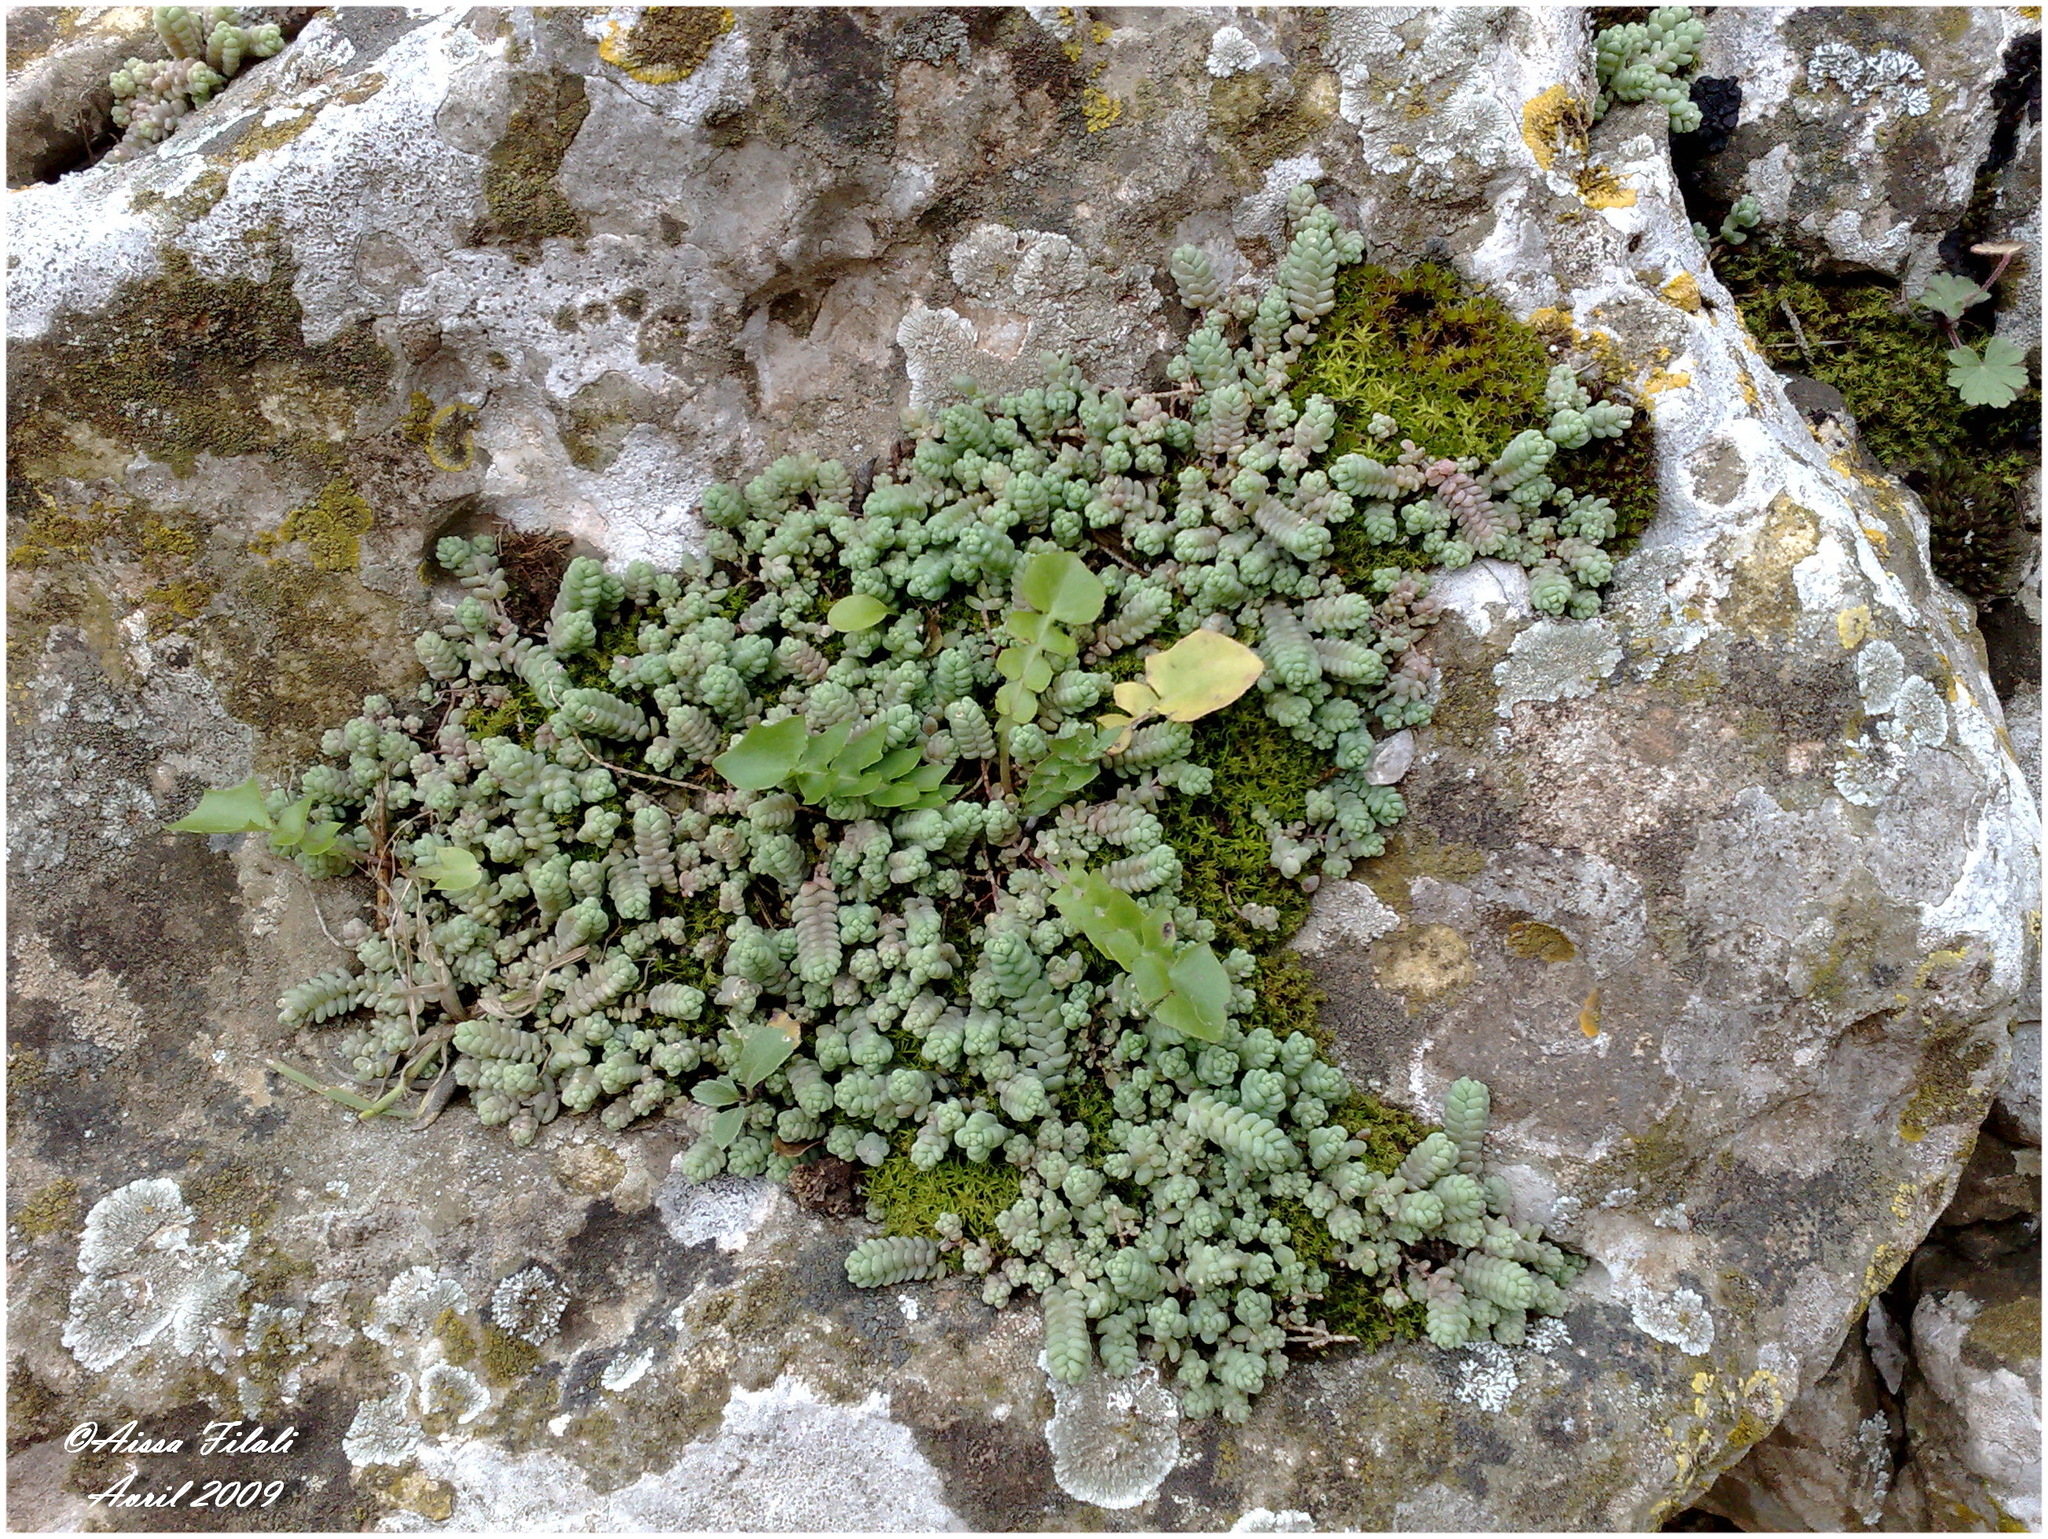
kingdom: Plantae
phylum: Tracheophyta
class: Magnoliopsida
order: Saxifragales
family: Crassulaceae
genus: Sedum
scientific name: Sedum dasyphyllum
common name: Thick-leaf stonecrop
